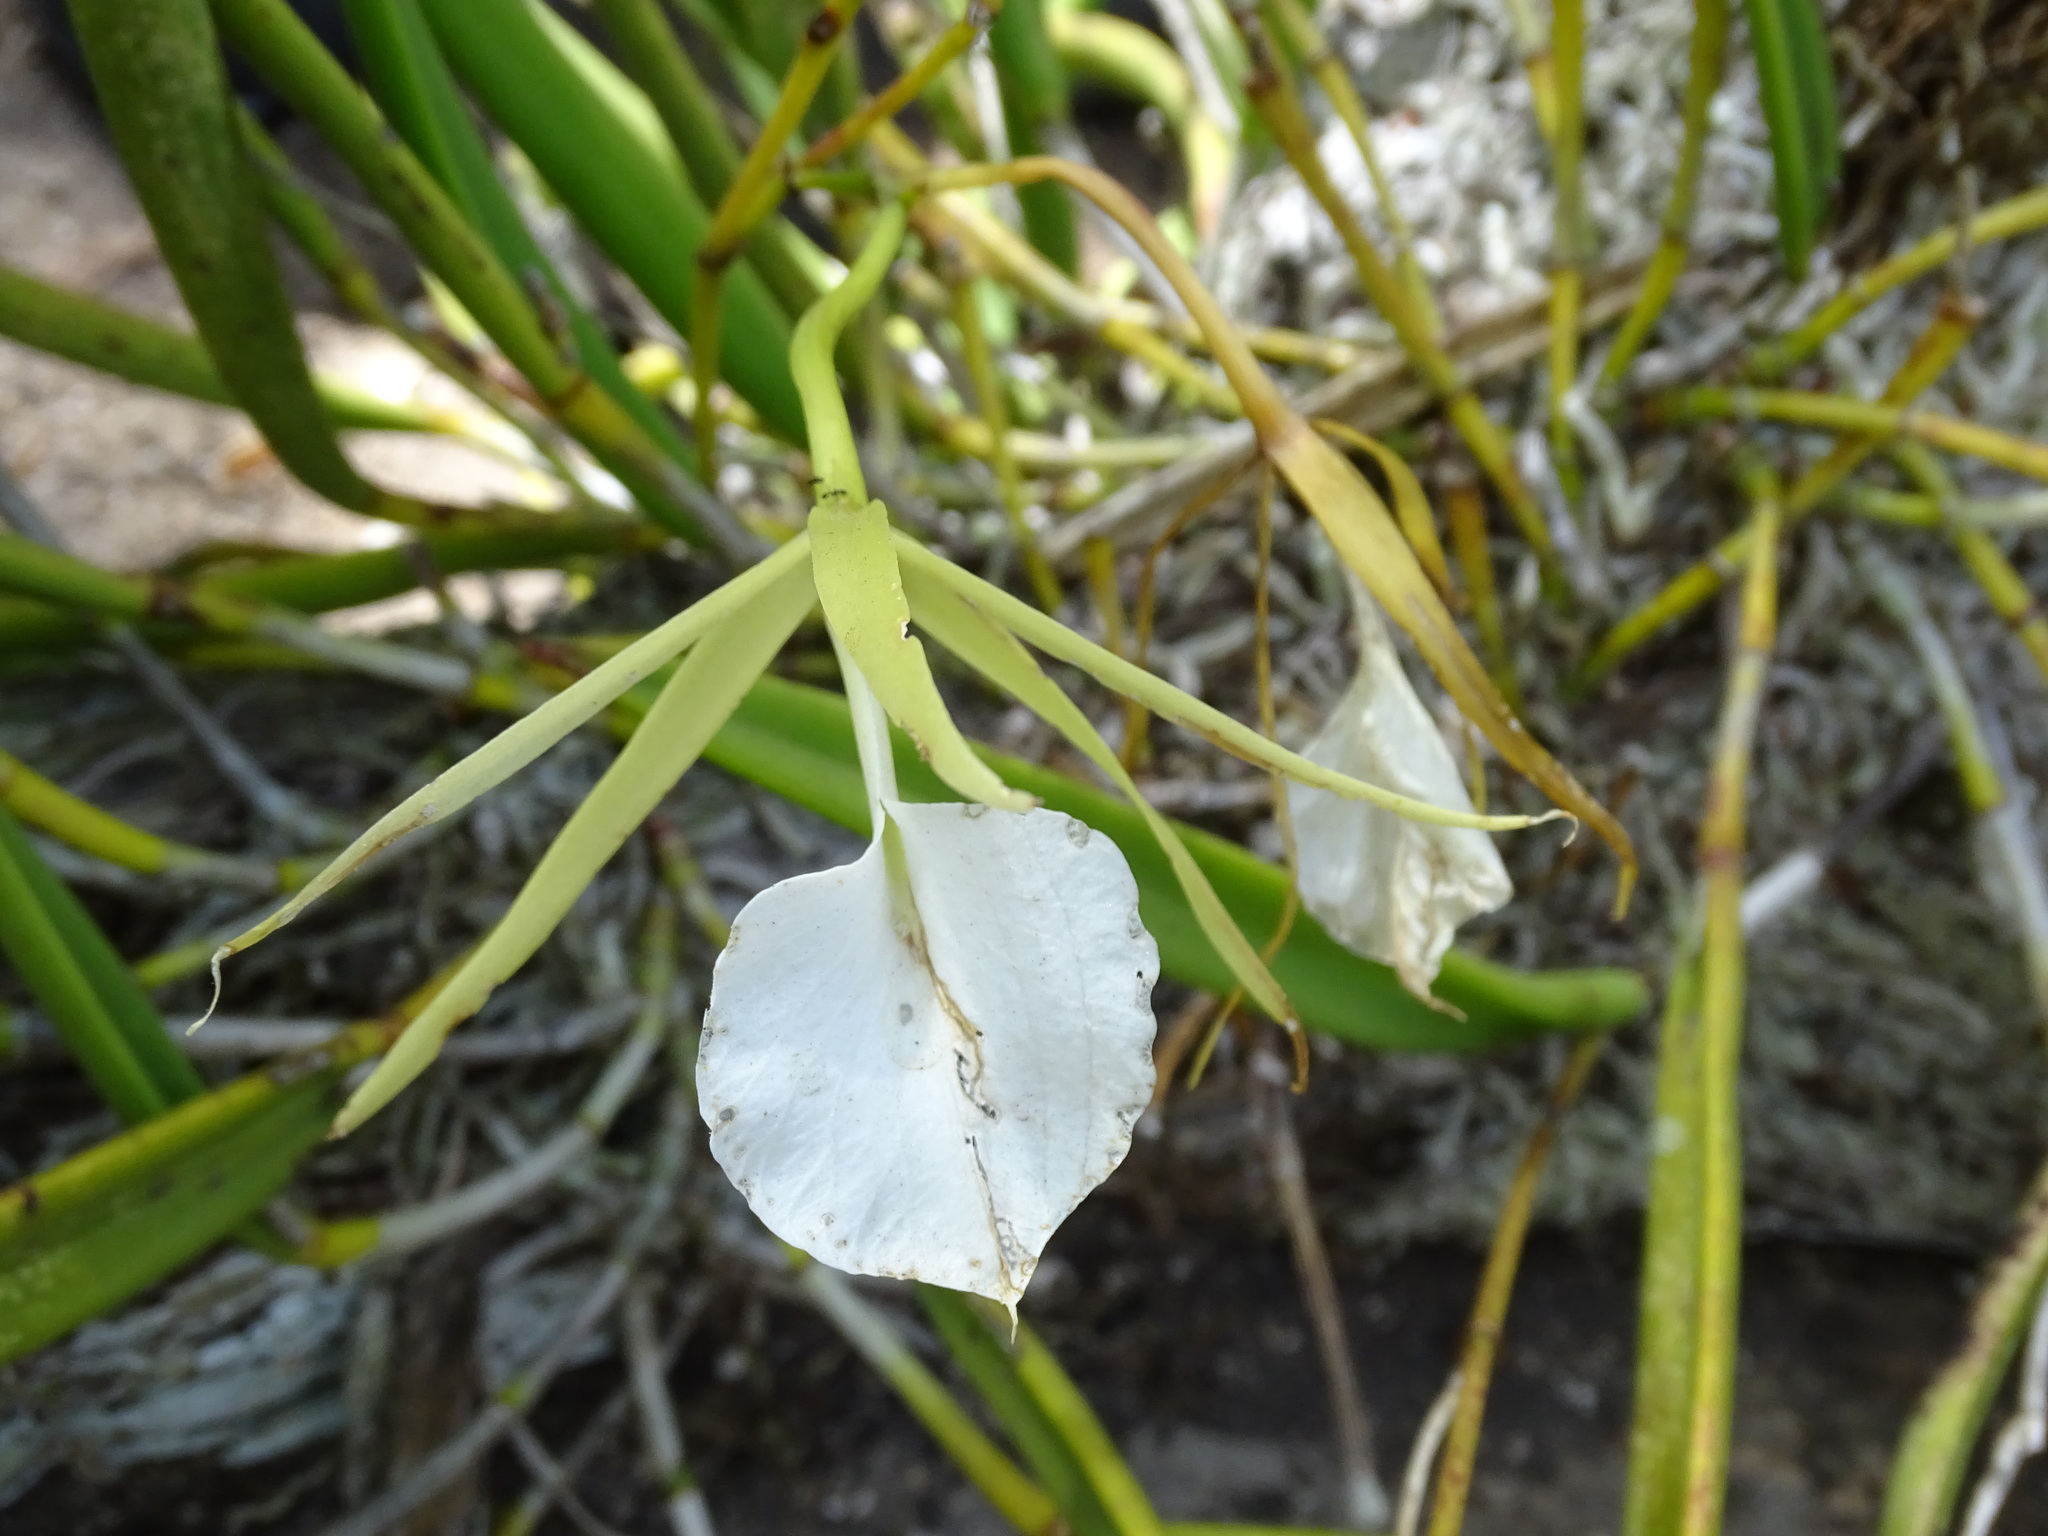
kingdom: Plantae
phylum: Tracheophyta
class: Liliopsida
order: Asparagales
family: Orchidaceae
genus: Brassavola
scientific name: Brassavola nodosa
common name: Lady of the night
